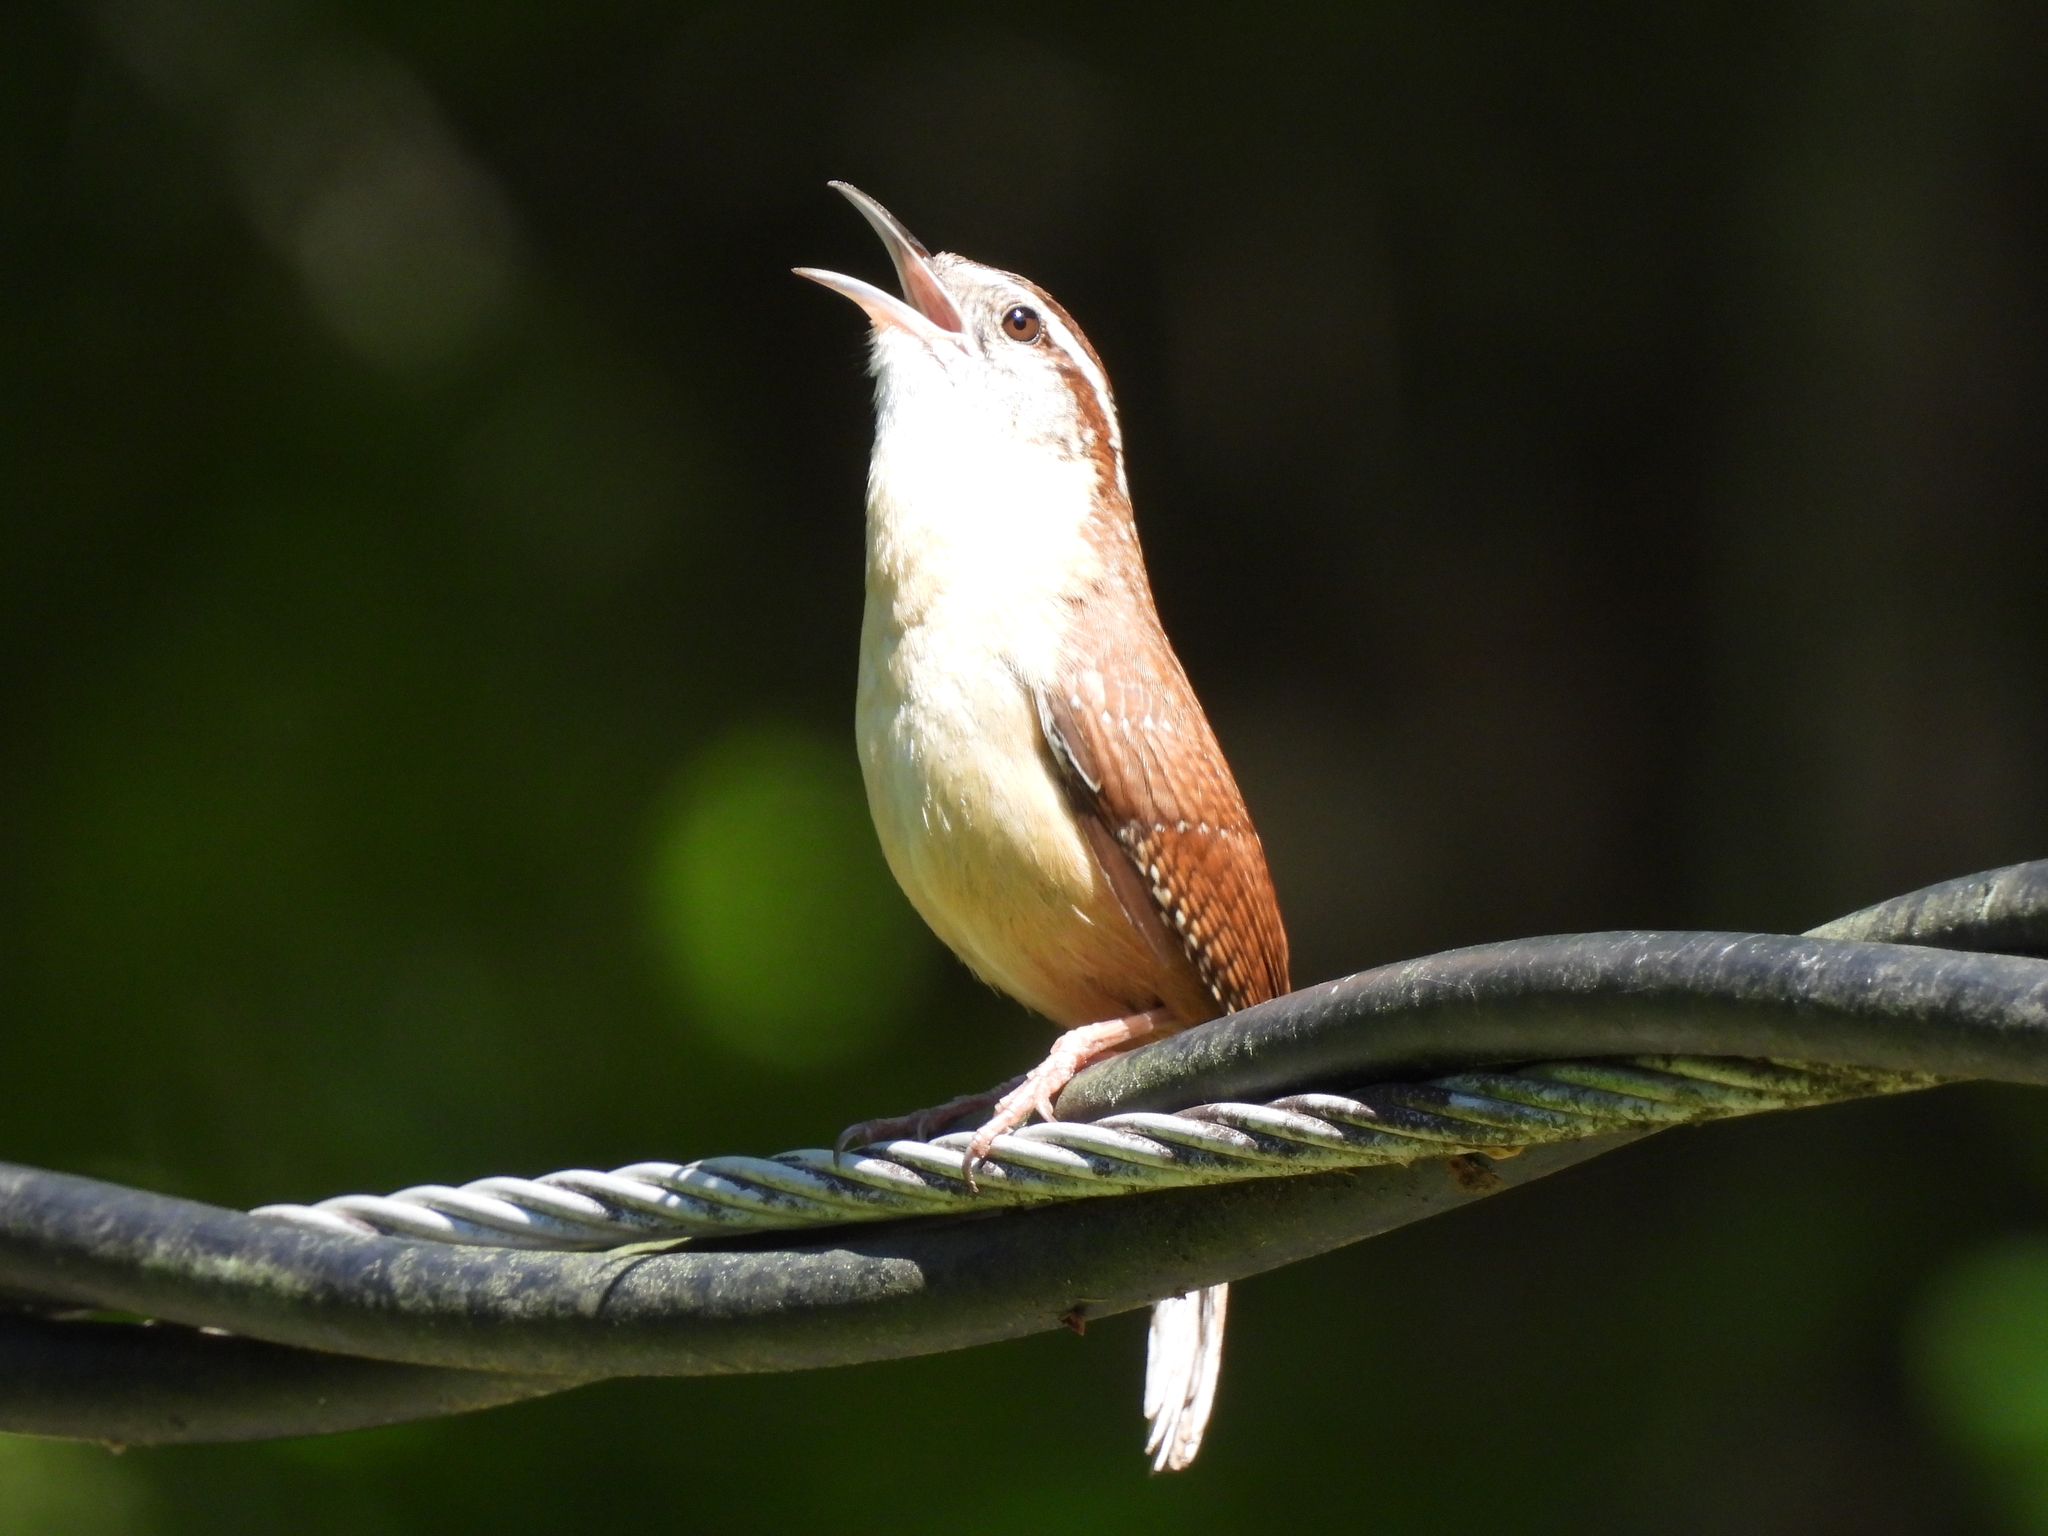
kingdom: Animalia
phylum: Chordata
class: Aves
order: Passeriformes
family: Troglodytidae
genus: Thryothorus
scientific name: Thryothorus ludovicianus
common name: Carolina wren
